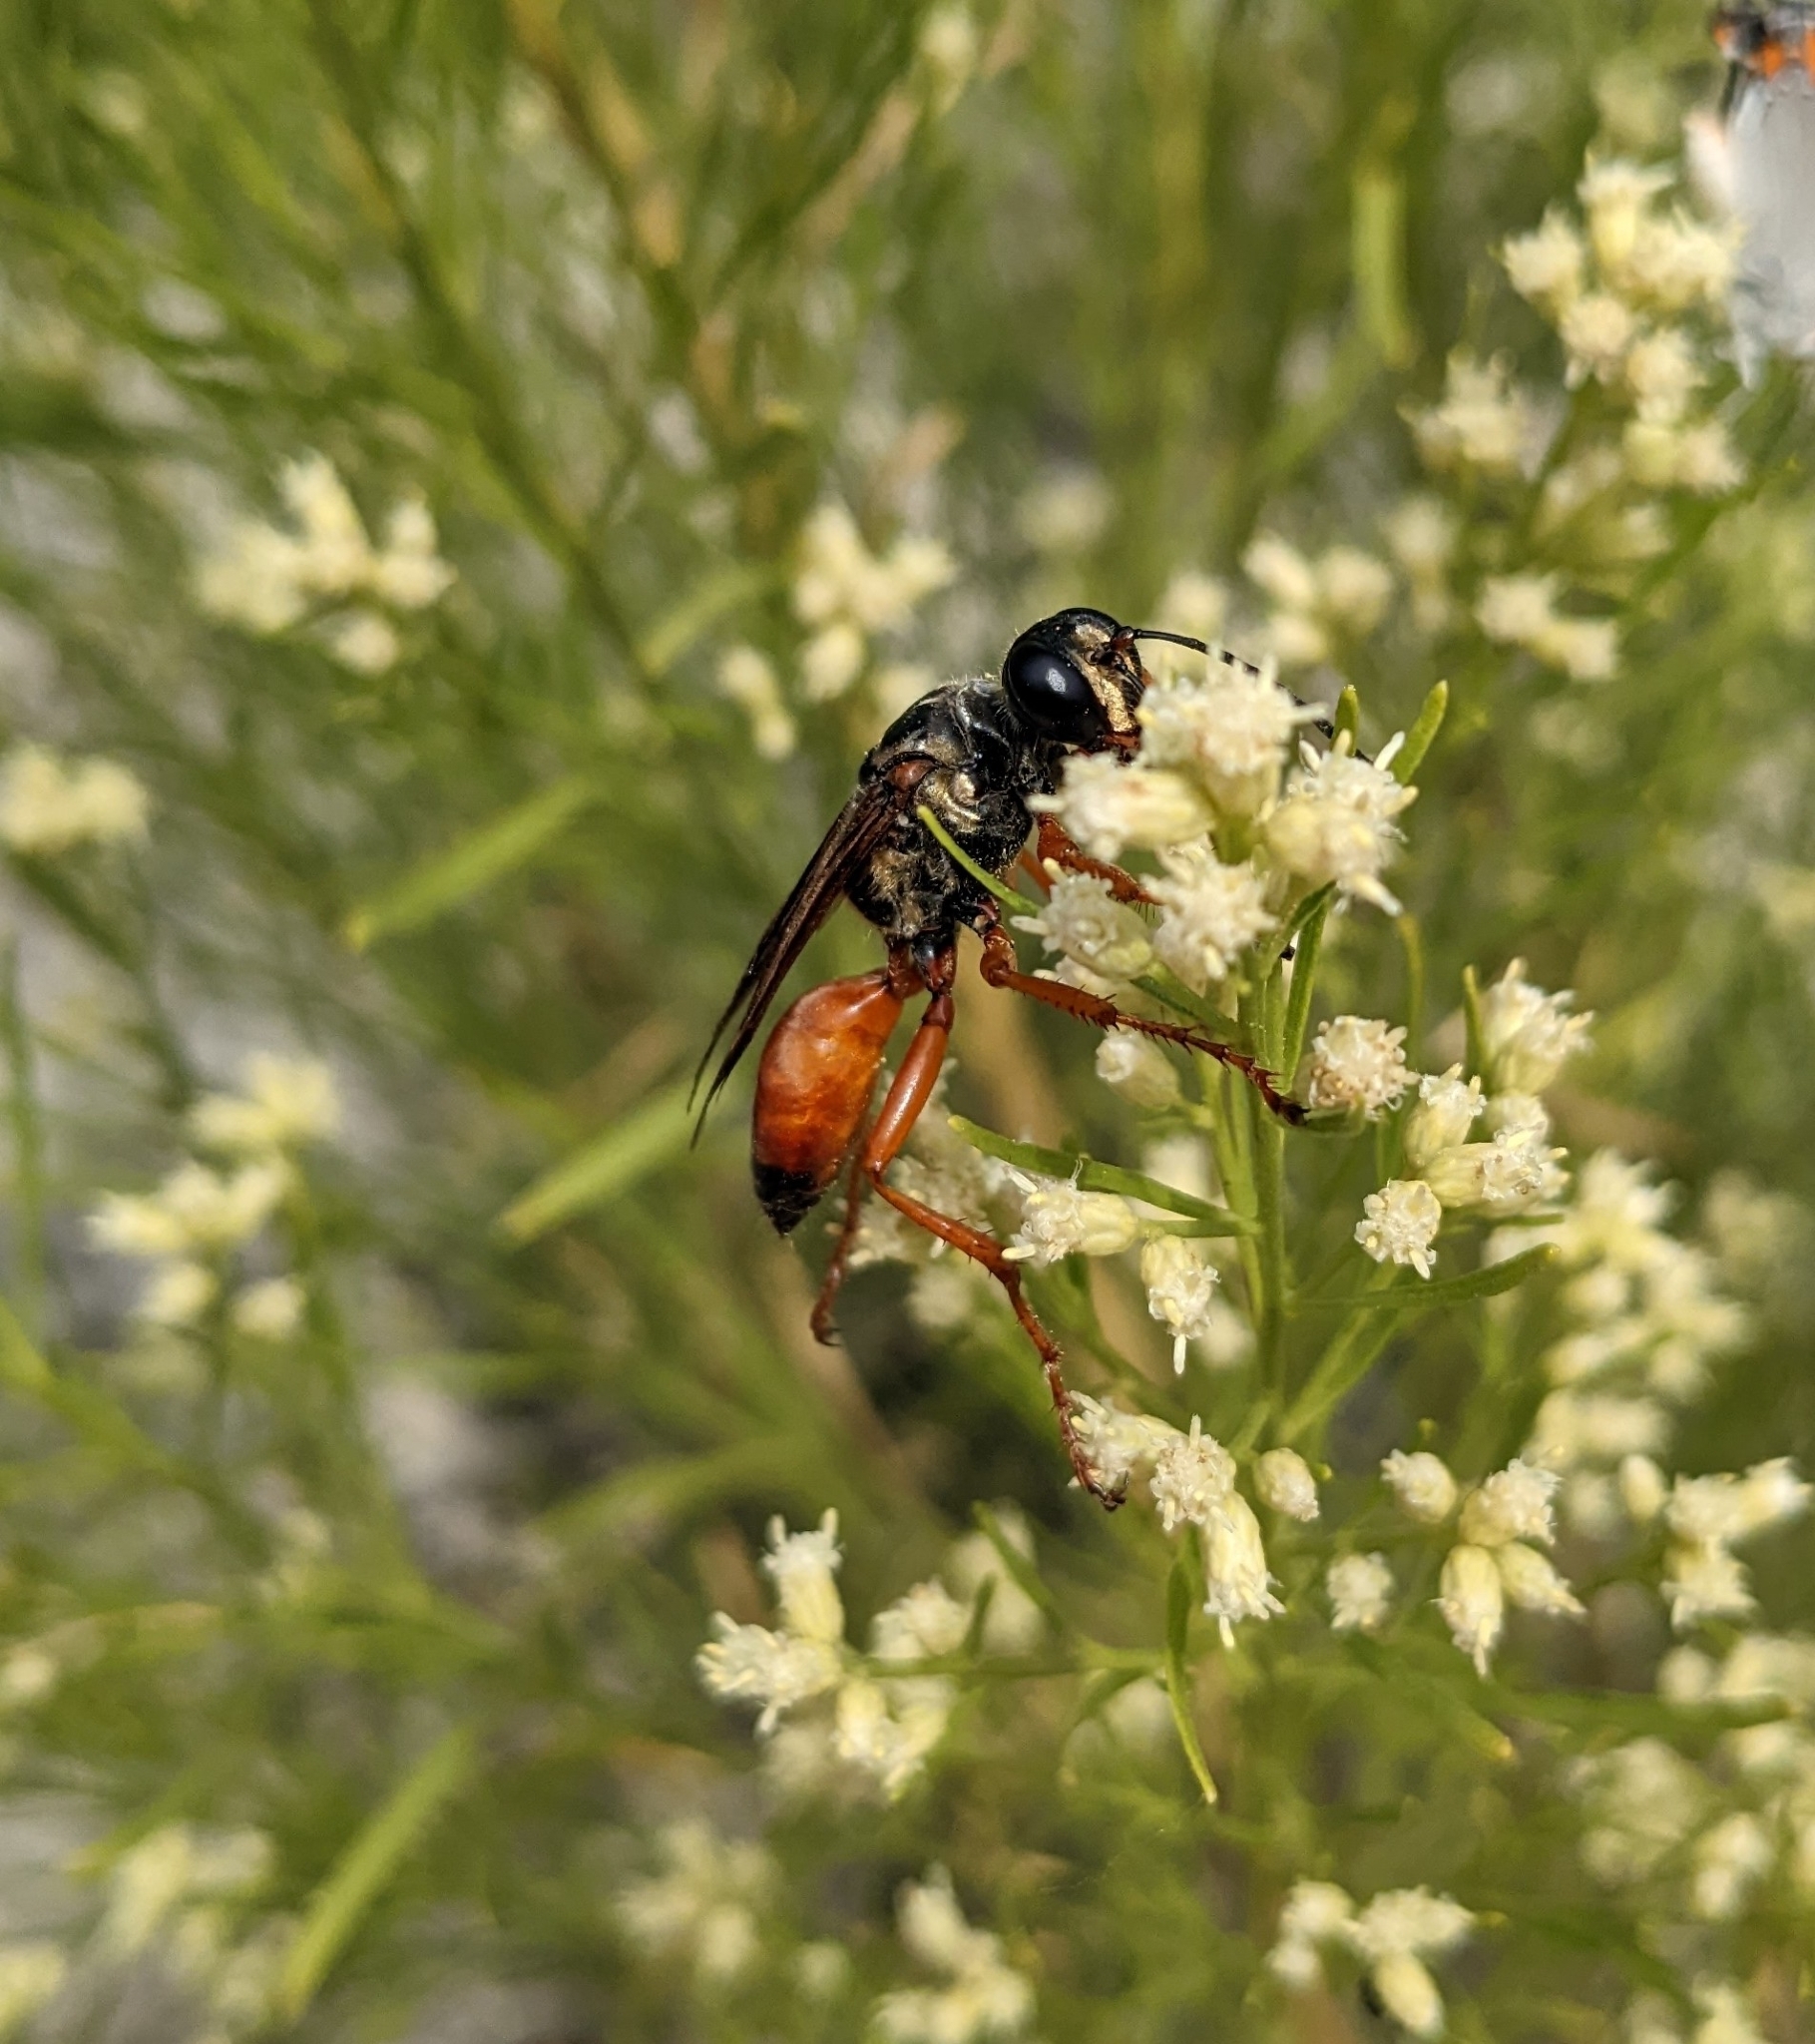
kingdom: Animalia
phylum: Arthropoda
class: Insecta
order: Hymenoptera
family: Sphecidae
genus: Sphex
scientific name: Sphex ichneumoneus
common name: Great golden digger wasp
